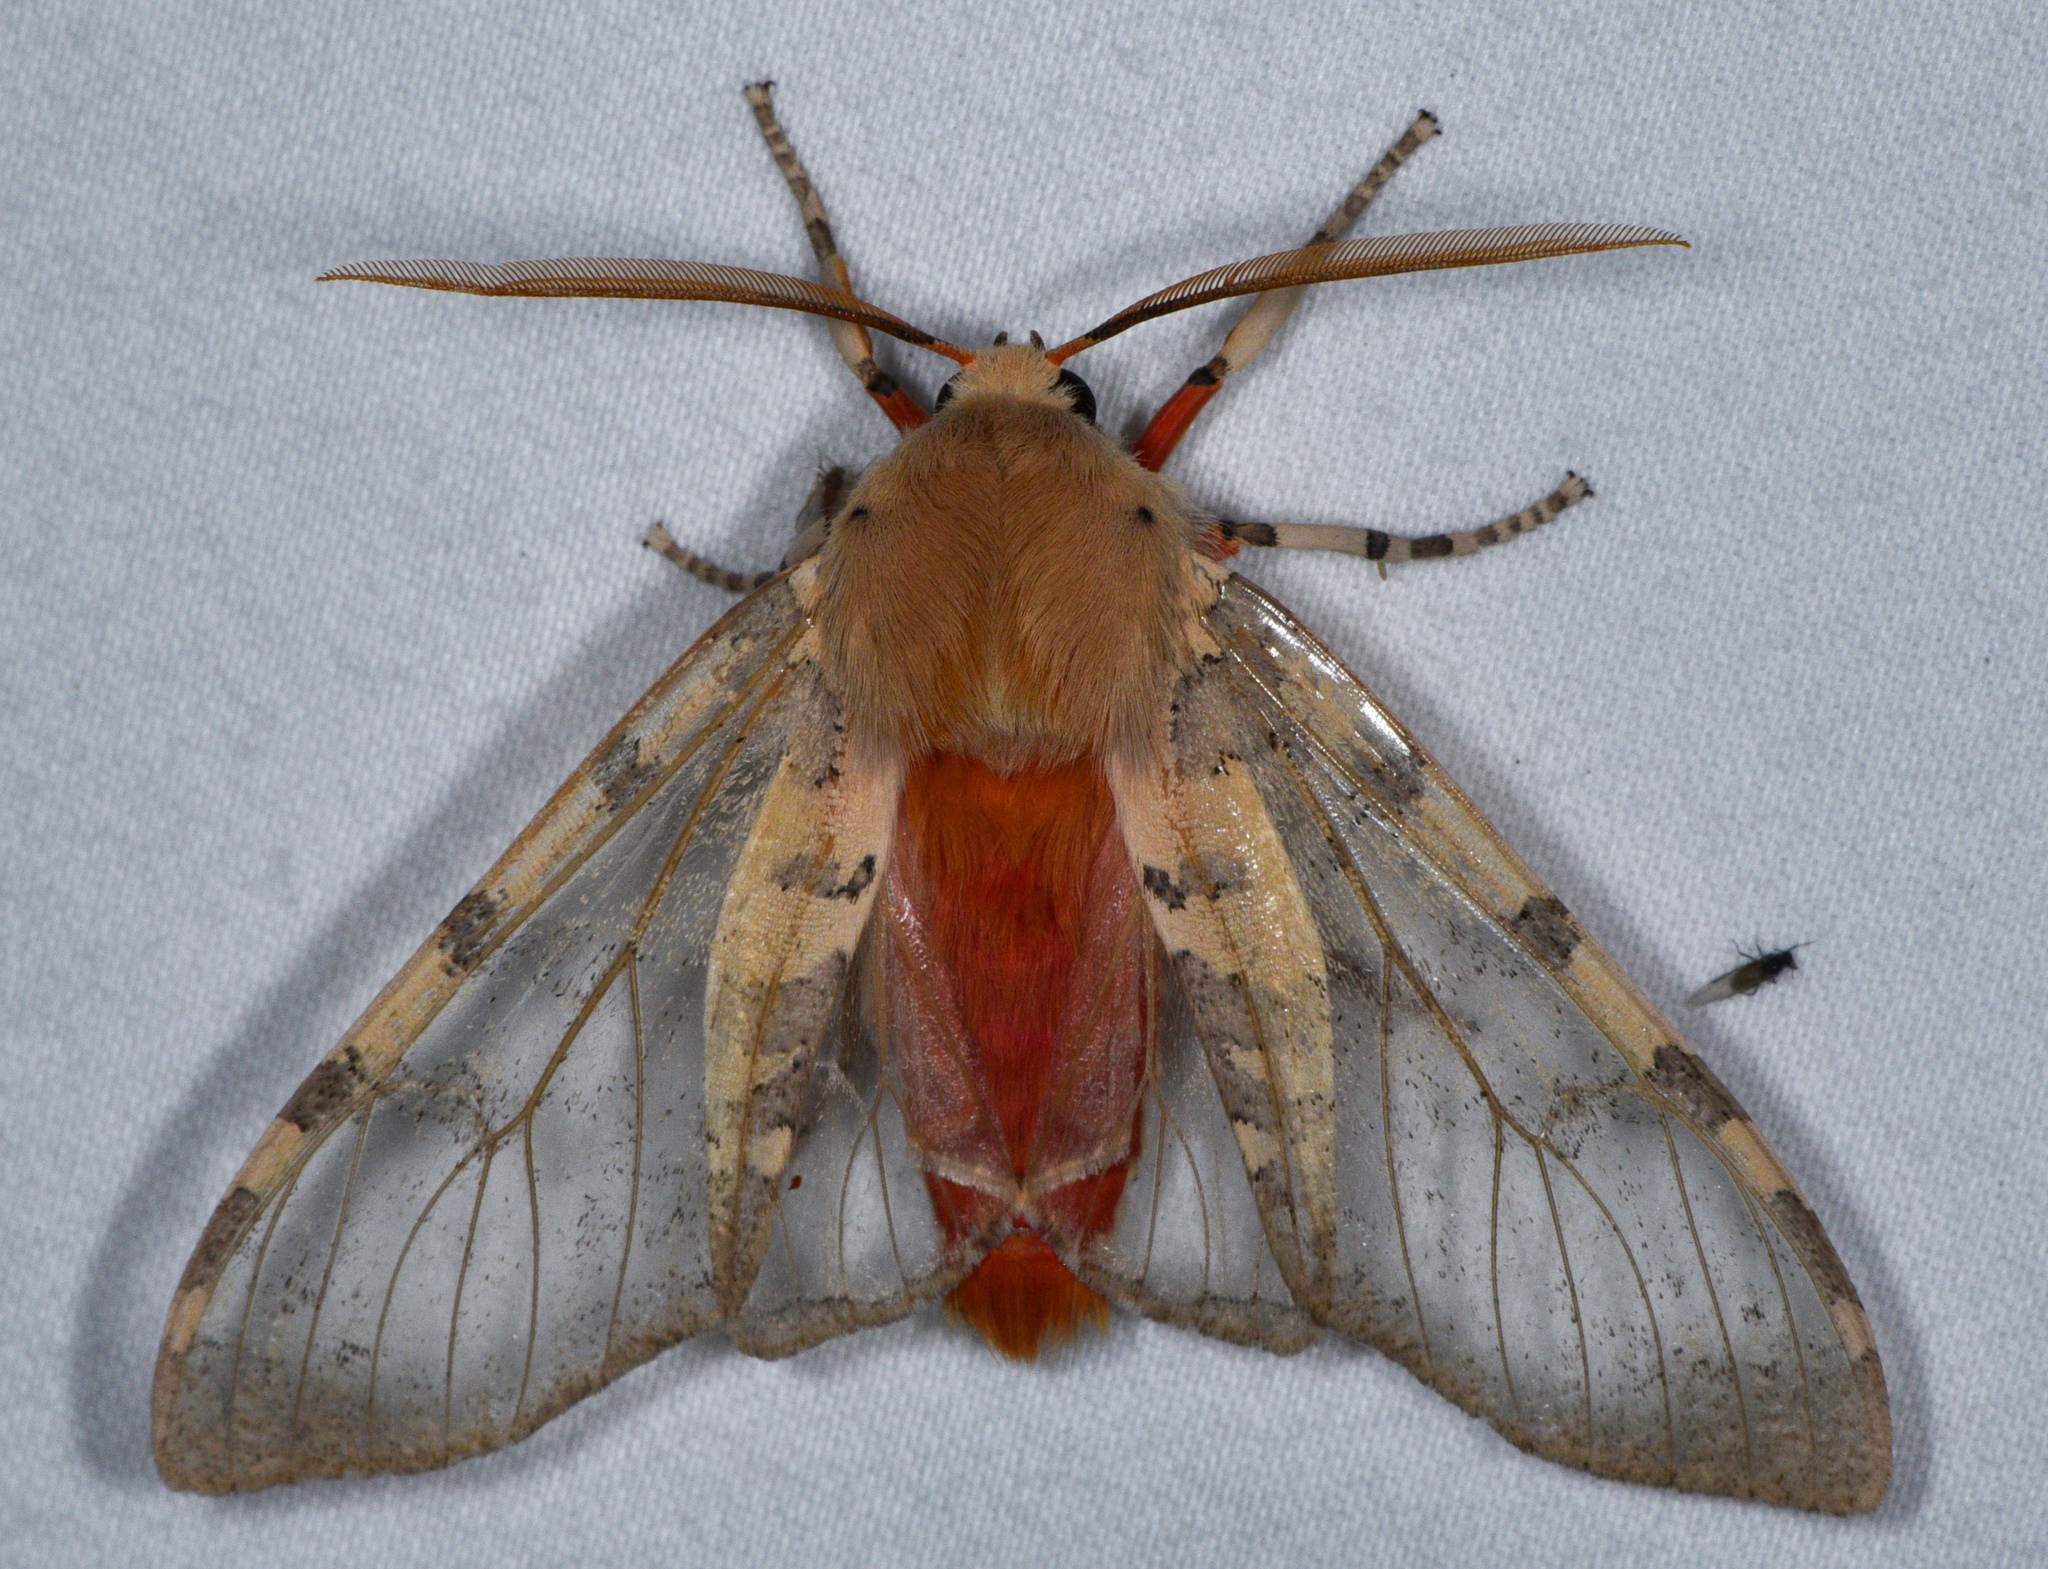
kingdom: Animalia
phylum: Arthropoda
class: Insecta
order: Lepidoptera
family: Erebidae
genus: Hemihyalea
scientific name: Hemihyalea edwardsii
